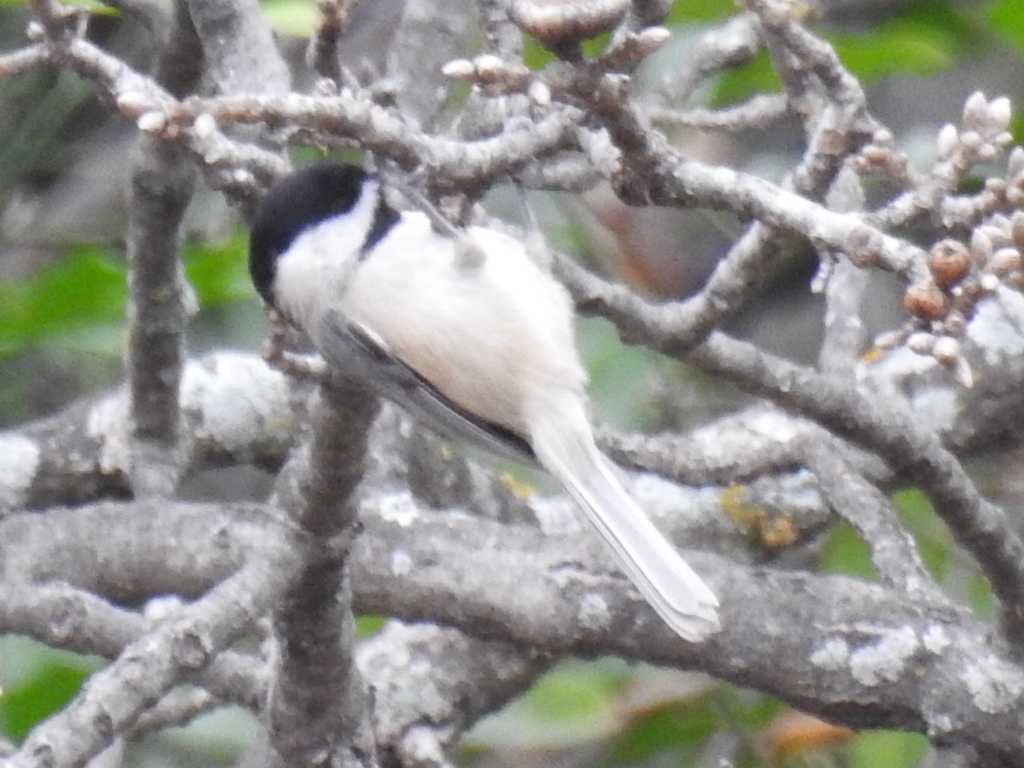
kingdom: Animalia
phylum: Chordata
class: Aves
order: Passeriformes
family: Paridae
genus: Poecile
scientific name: Poecile carolinensis
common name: Carolina chickadee
